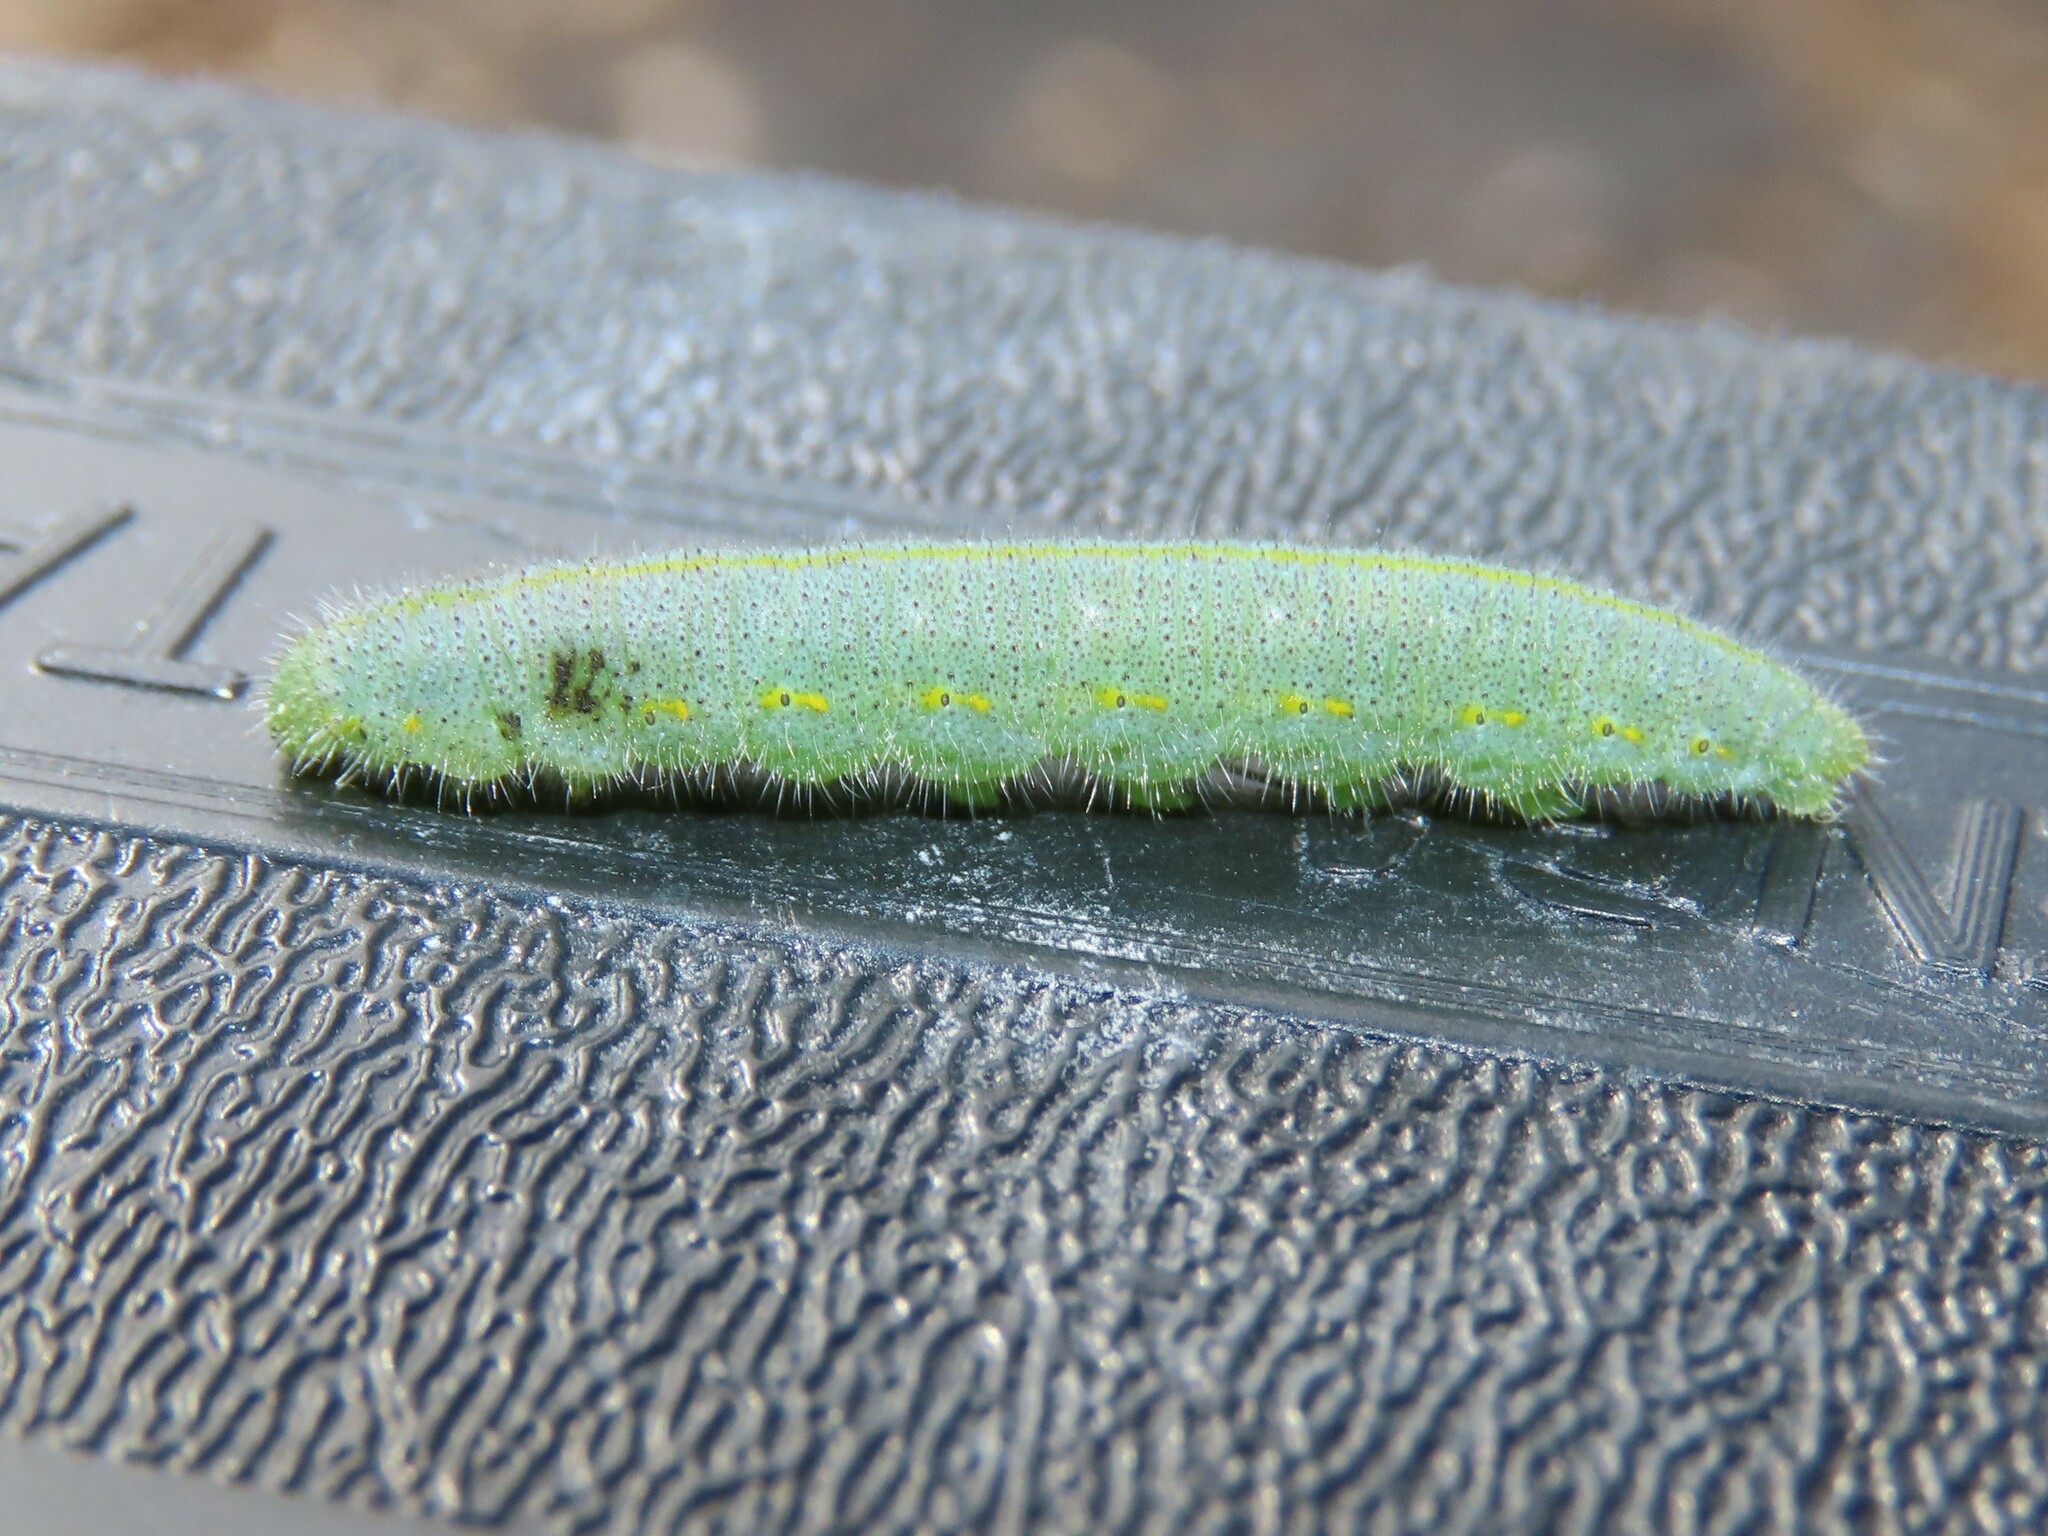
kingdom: Animalia
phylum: Arthropoda
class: Insecta
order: Lepidoptera
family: Pieridae
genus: Pieris
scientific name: Pieris rapae
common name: Small white
